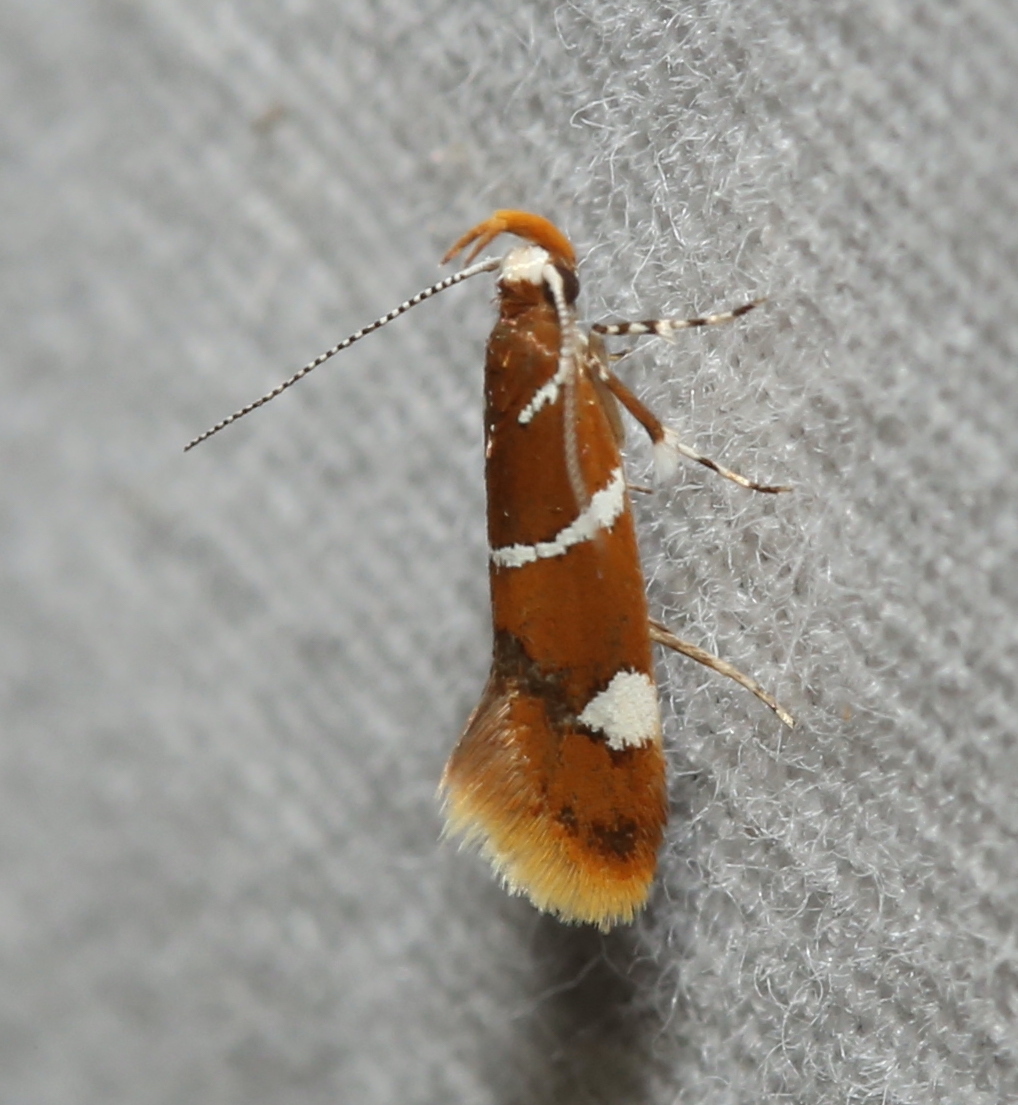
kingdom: Animalia
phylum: Arthropoda
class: Insecta
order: Lepidoptera
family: Oecophoridae
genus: Promalactis
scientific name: Promalactis suzukiella
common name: Moth
